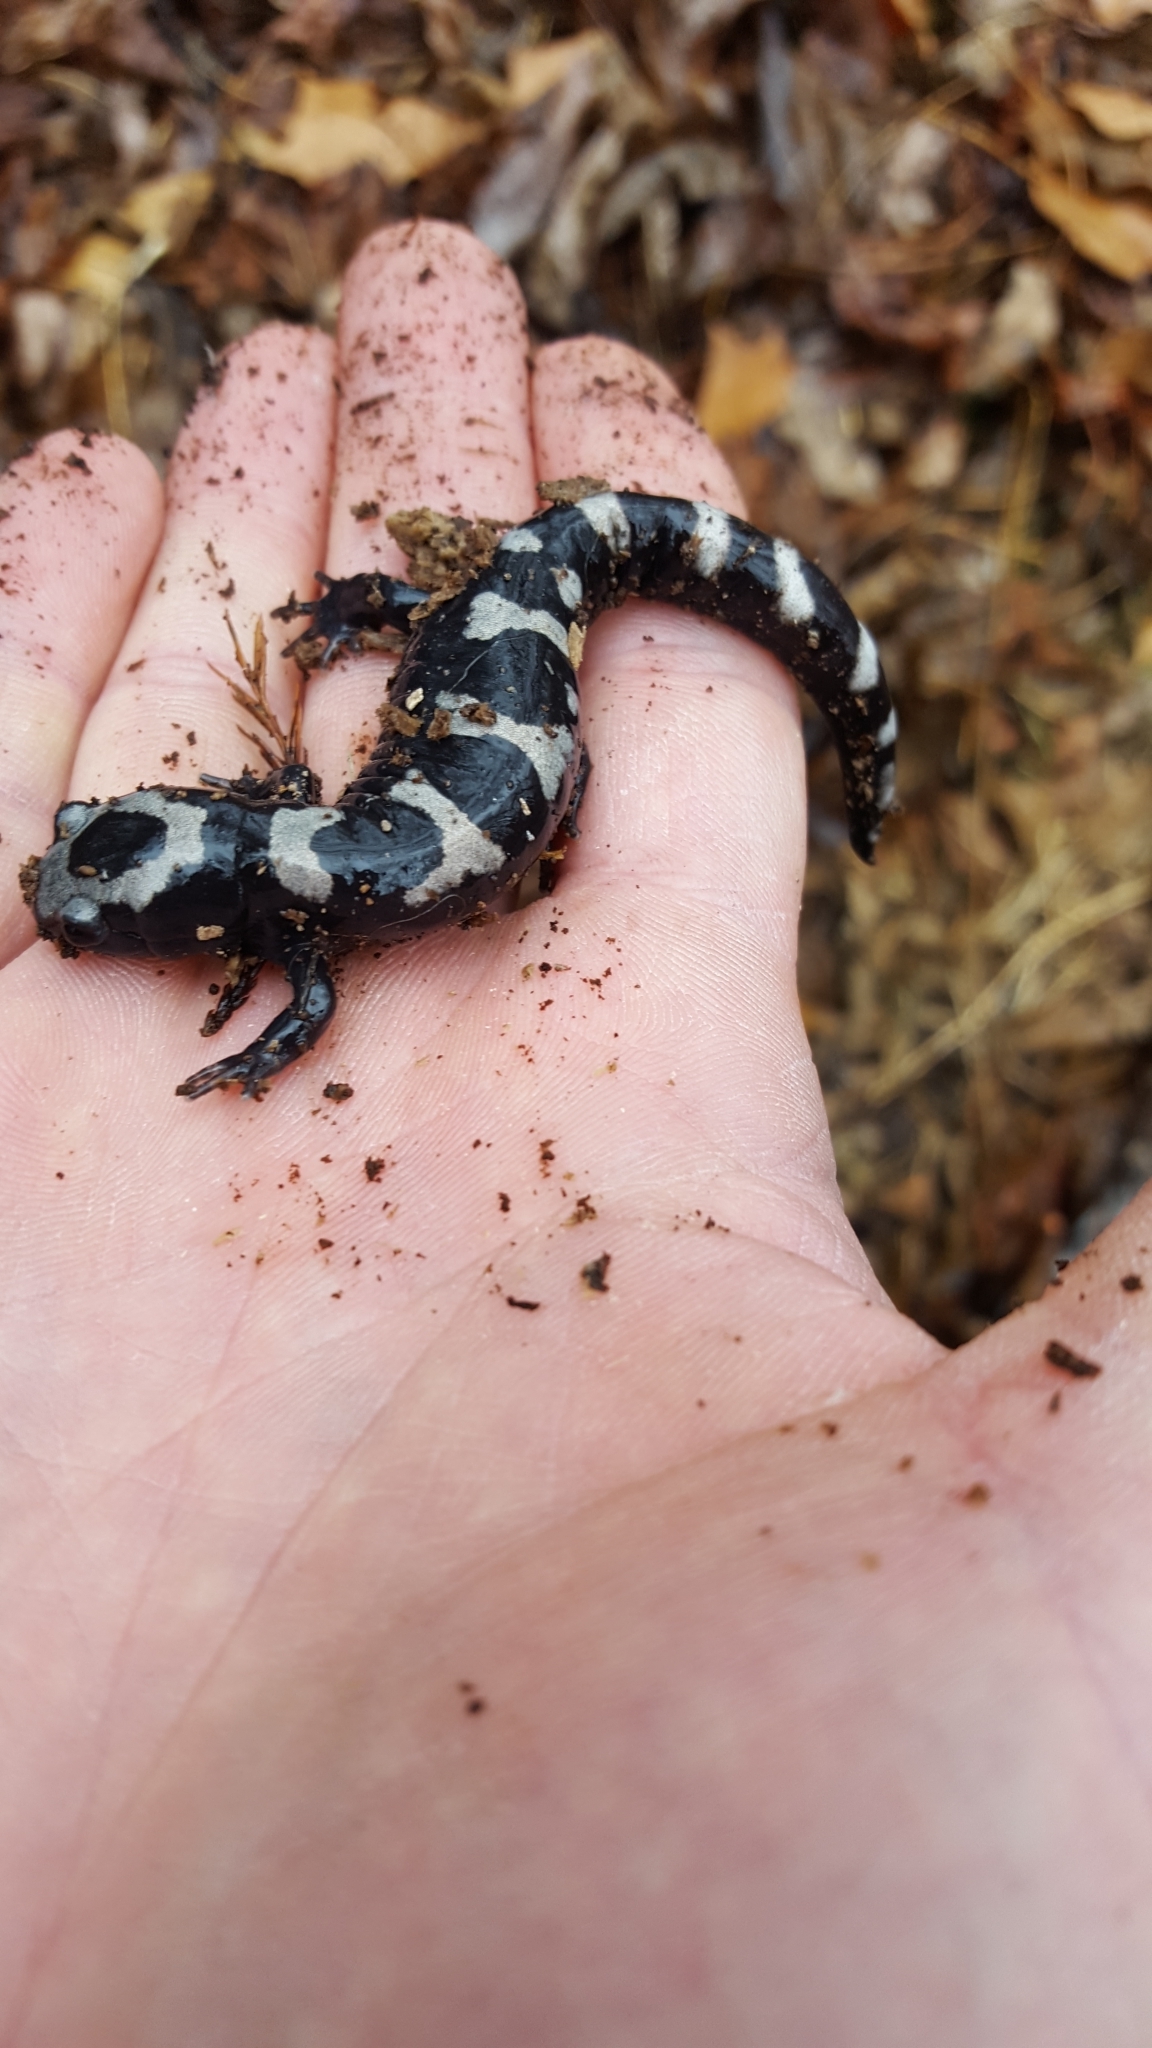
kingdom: Animalia
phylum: Chordata
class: Amphibia
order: Caudata
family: Ambystomatidae
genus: Ambystoma
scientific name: Ambystoma opacum
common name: Marbled salamander
